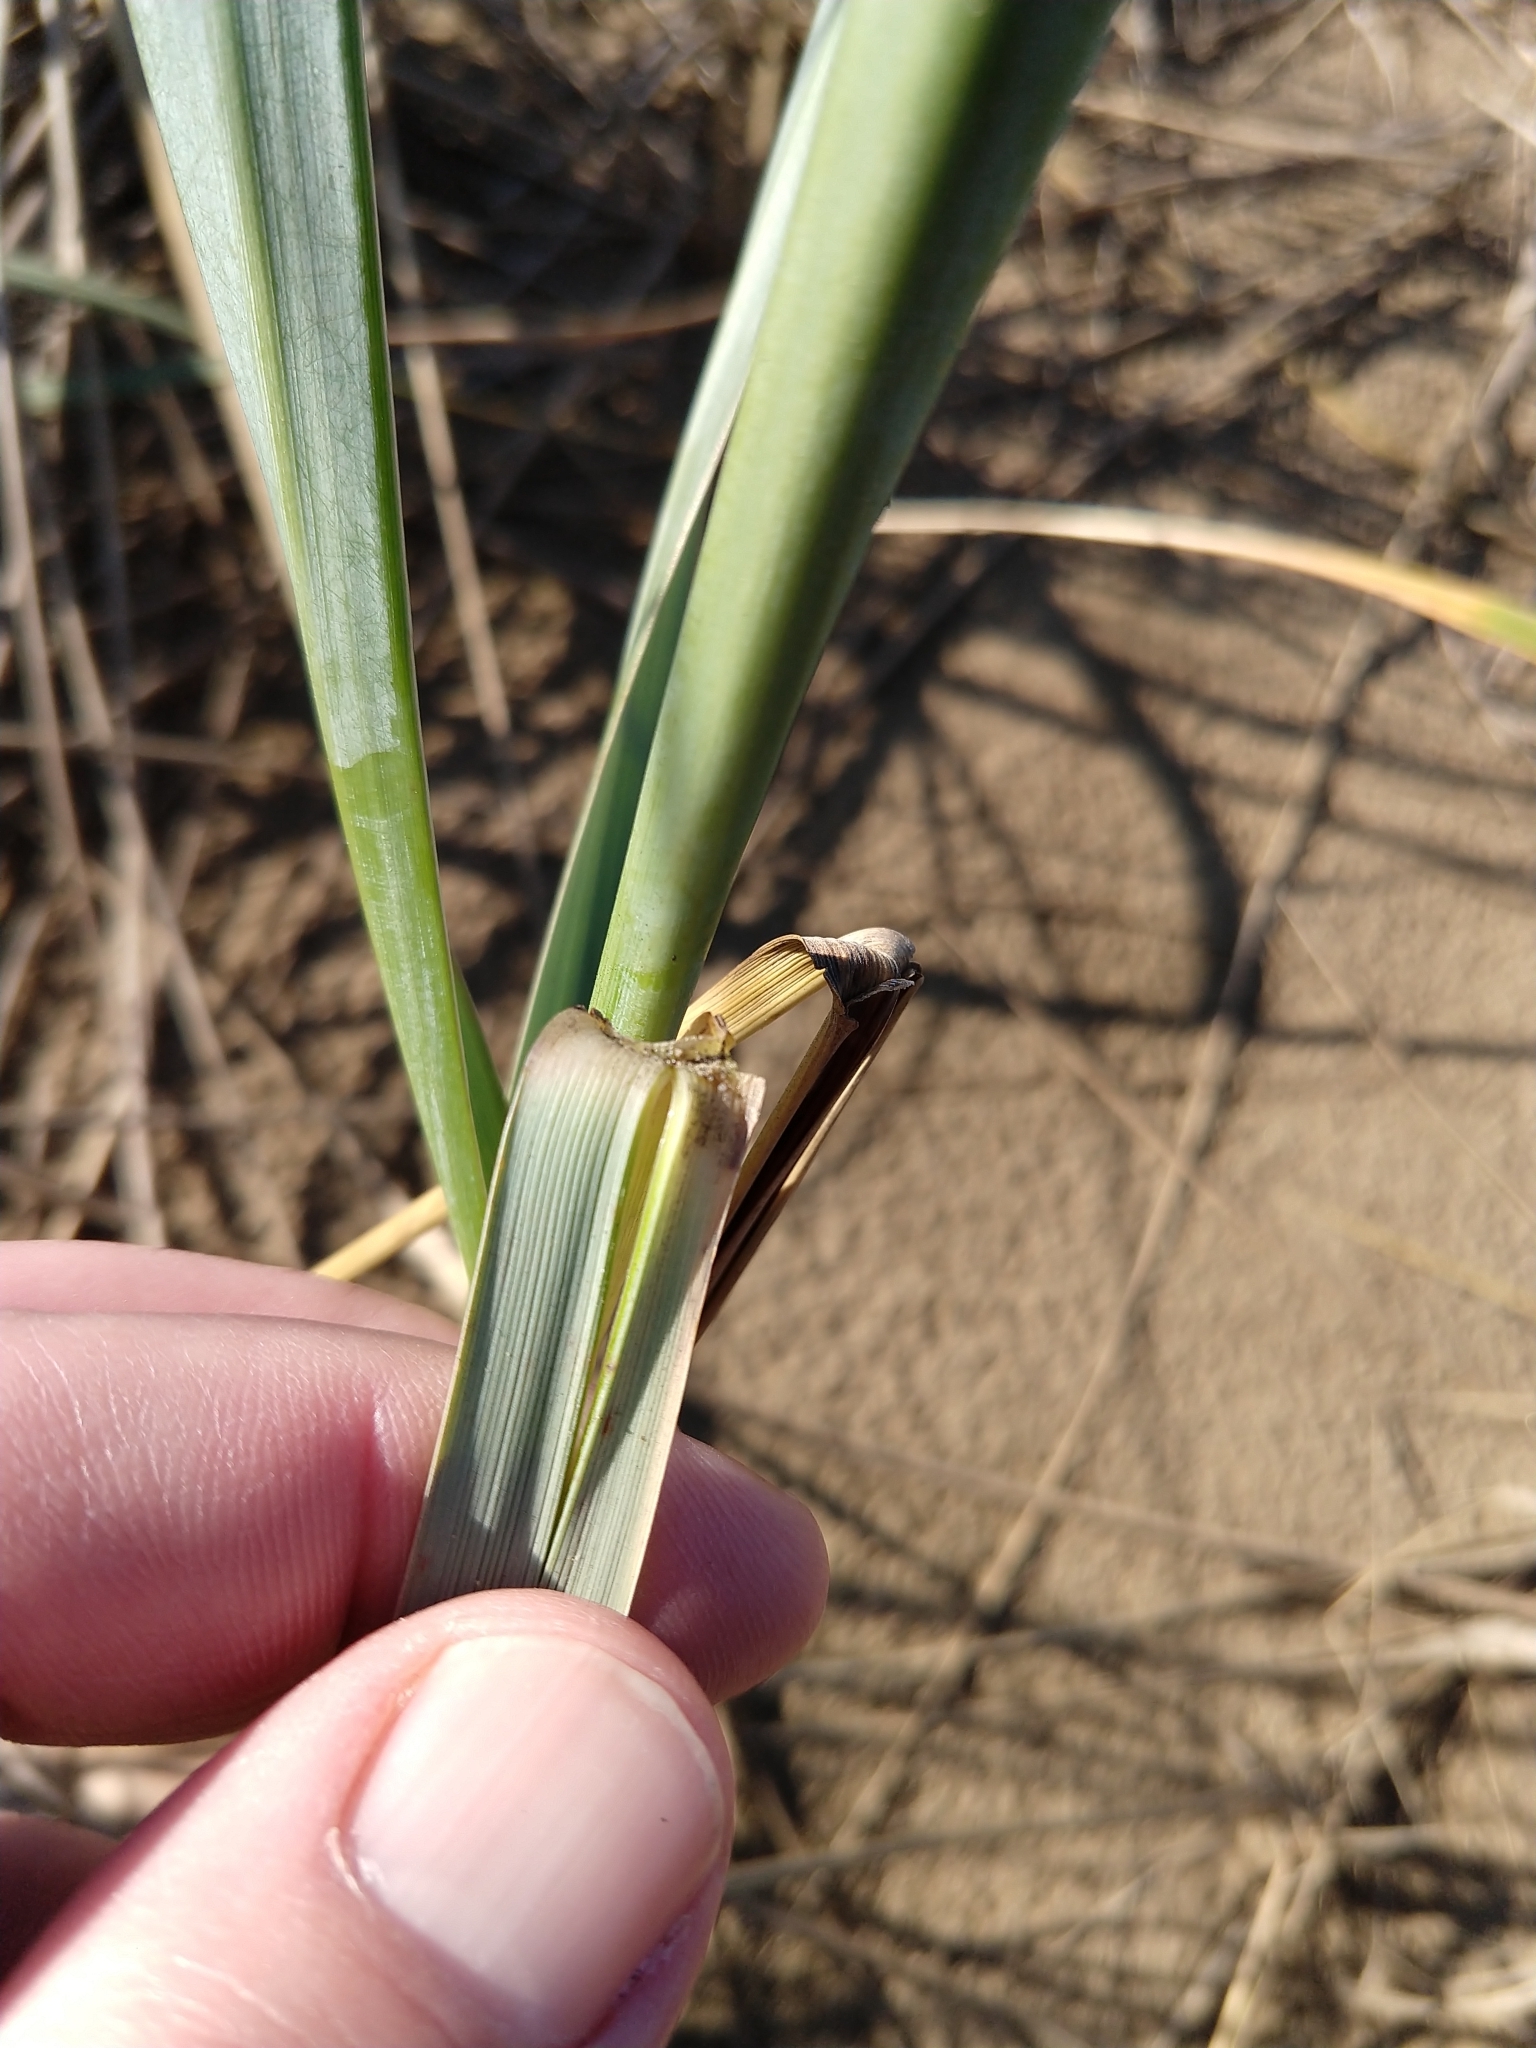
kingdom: Plantae
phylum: Tracheophyta
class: Liliopsida
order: Poales
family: Poaceae
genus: Leymus
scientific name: Leymus mollis
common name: American dune grass
